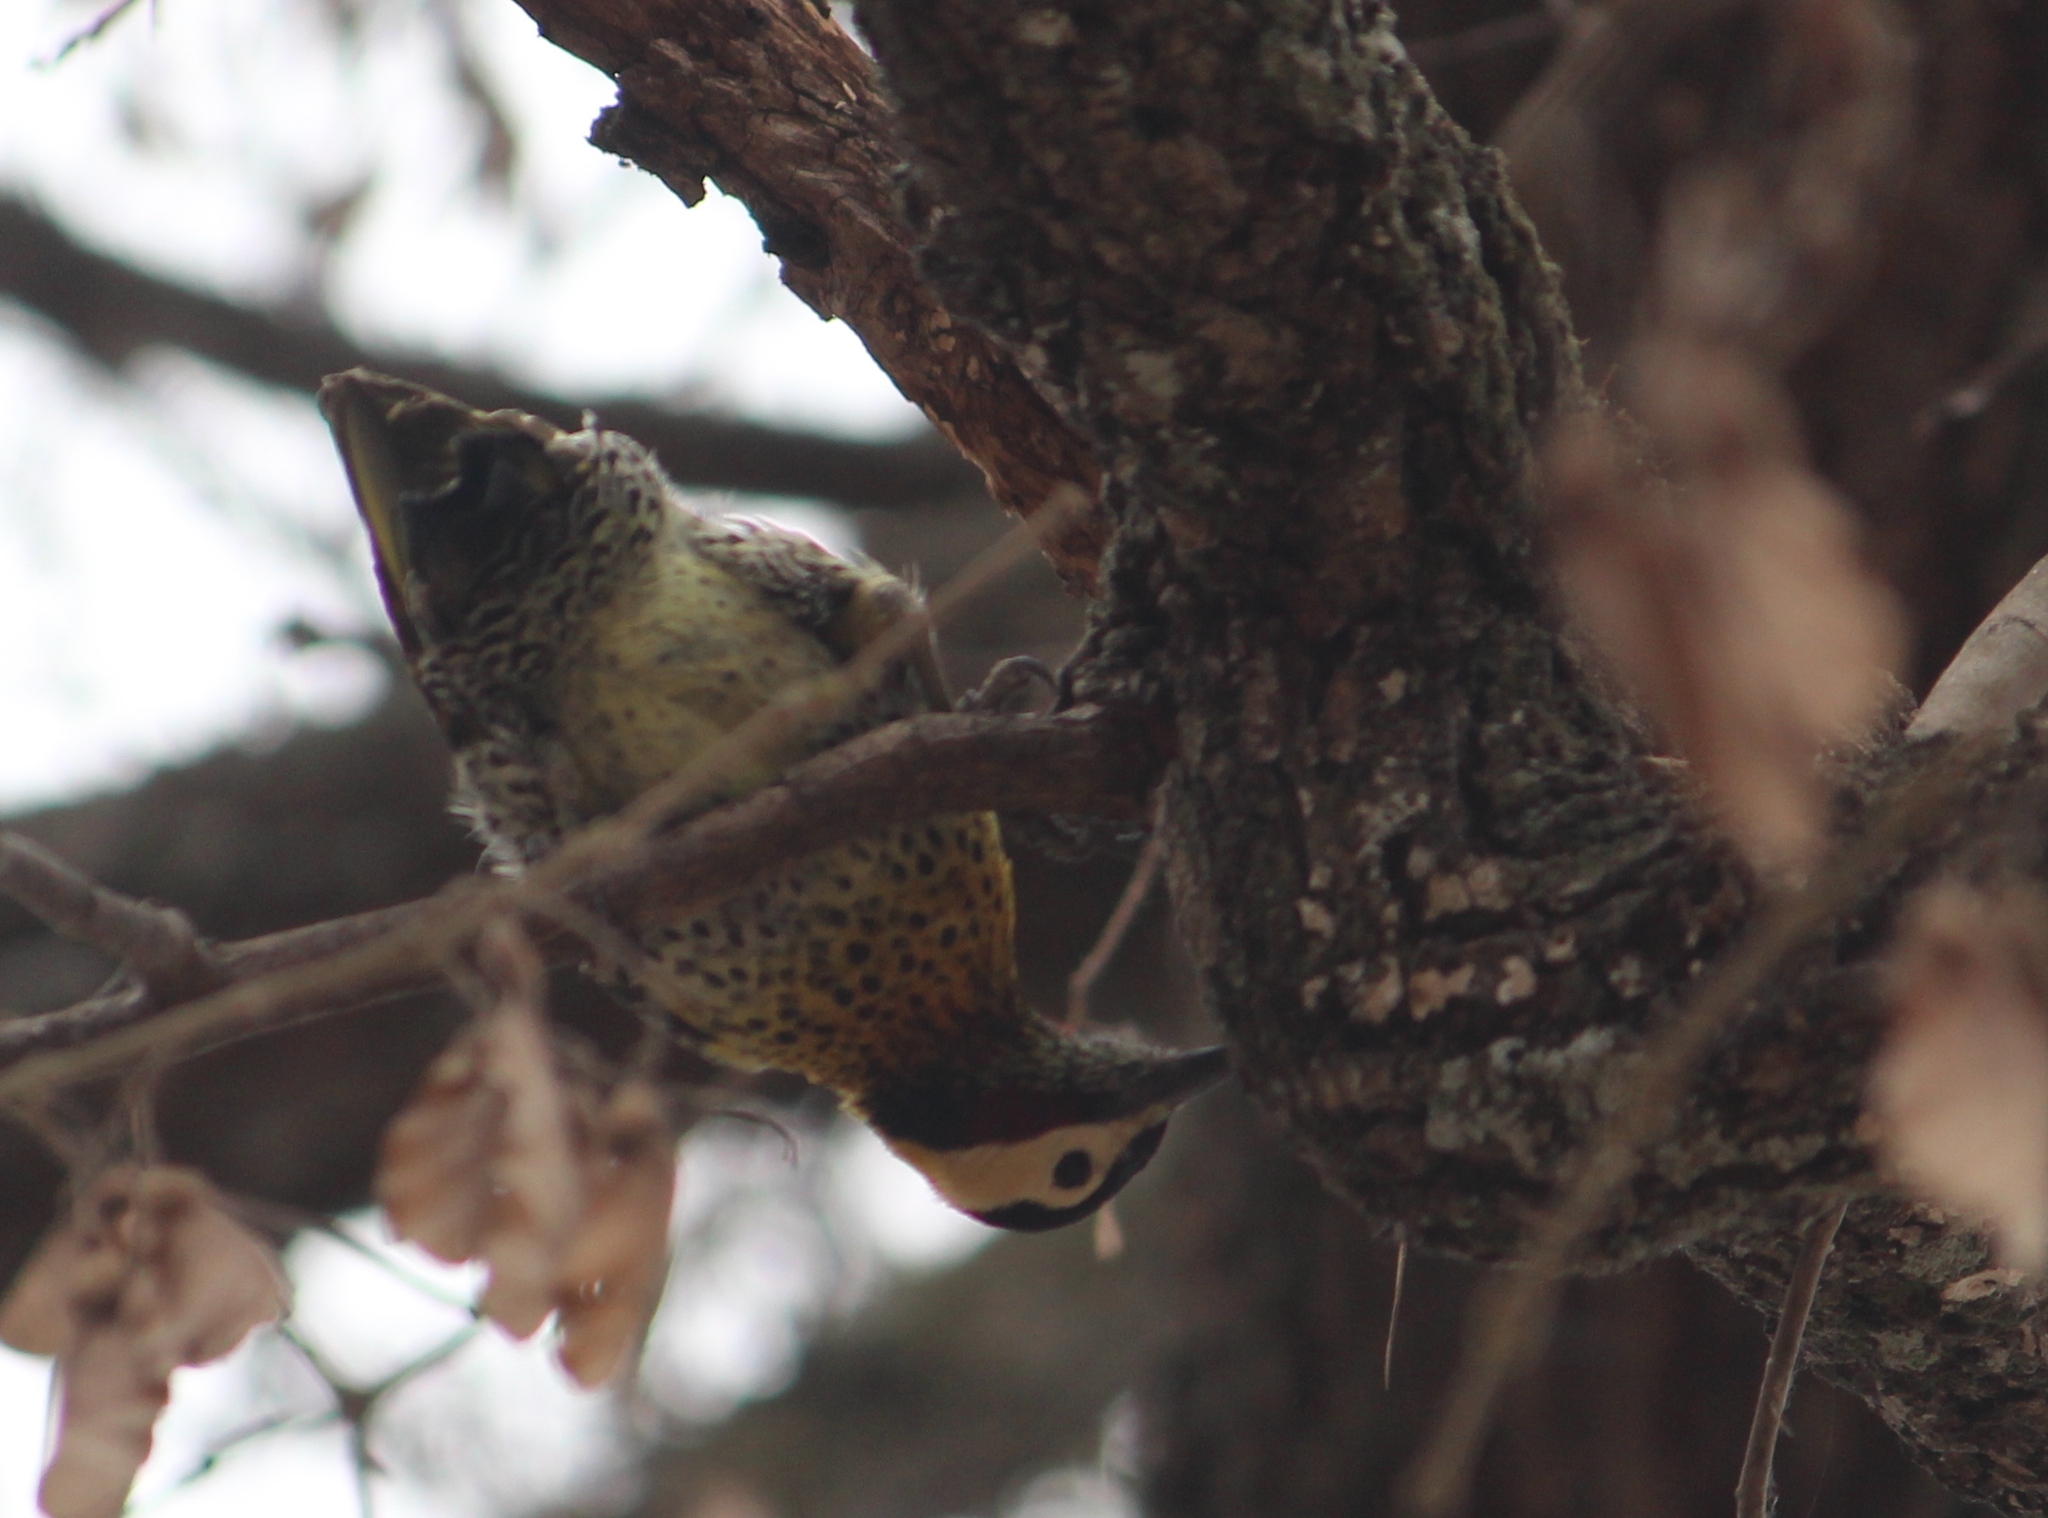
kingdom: Animalia
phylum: Chordata
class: Aves
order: Piciformes
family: Picidae
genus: Colaptes
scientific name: Colaptes melanochloros
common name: Green-barred woodpecker
